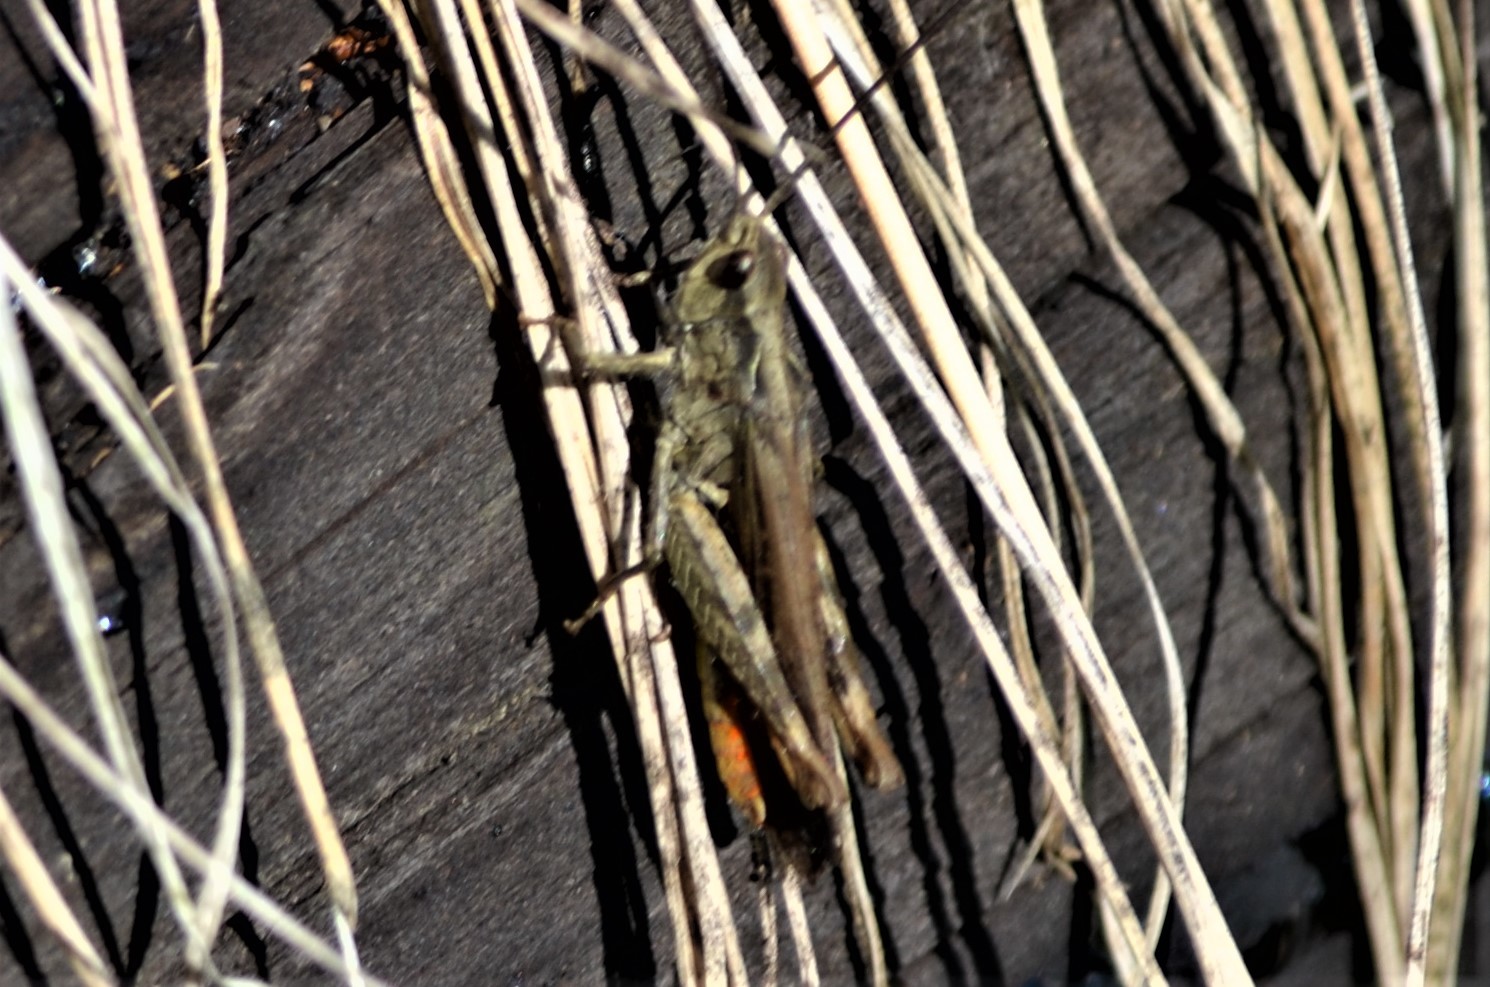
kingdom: Animalia
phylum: Arthropoda
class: Insecta
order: Orthoptera
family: Acrididae
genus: Chorthippus
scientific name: Chorthippus brunneus
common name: Field grasshopper
